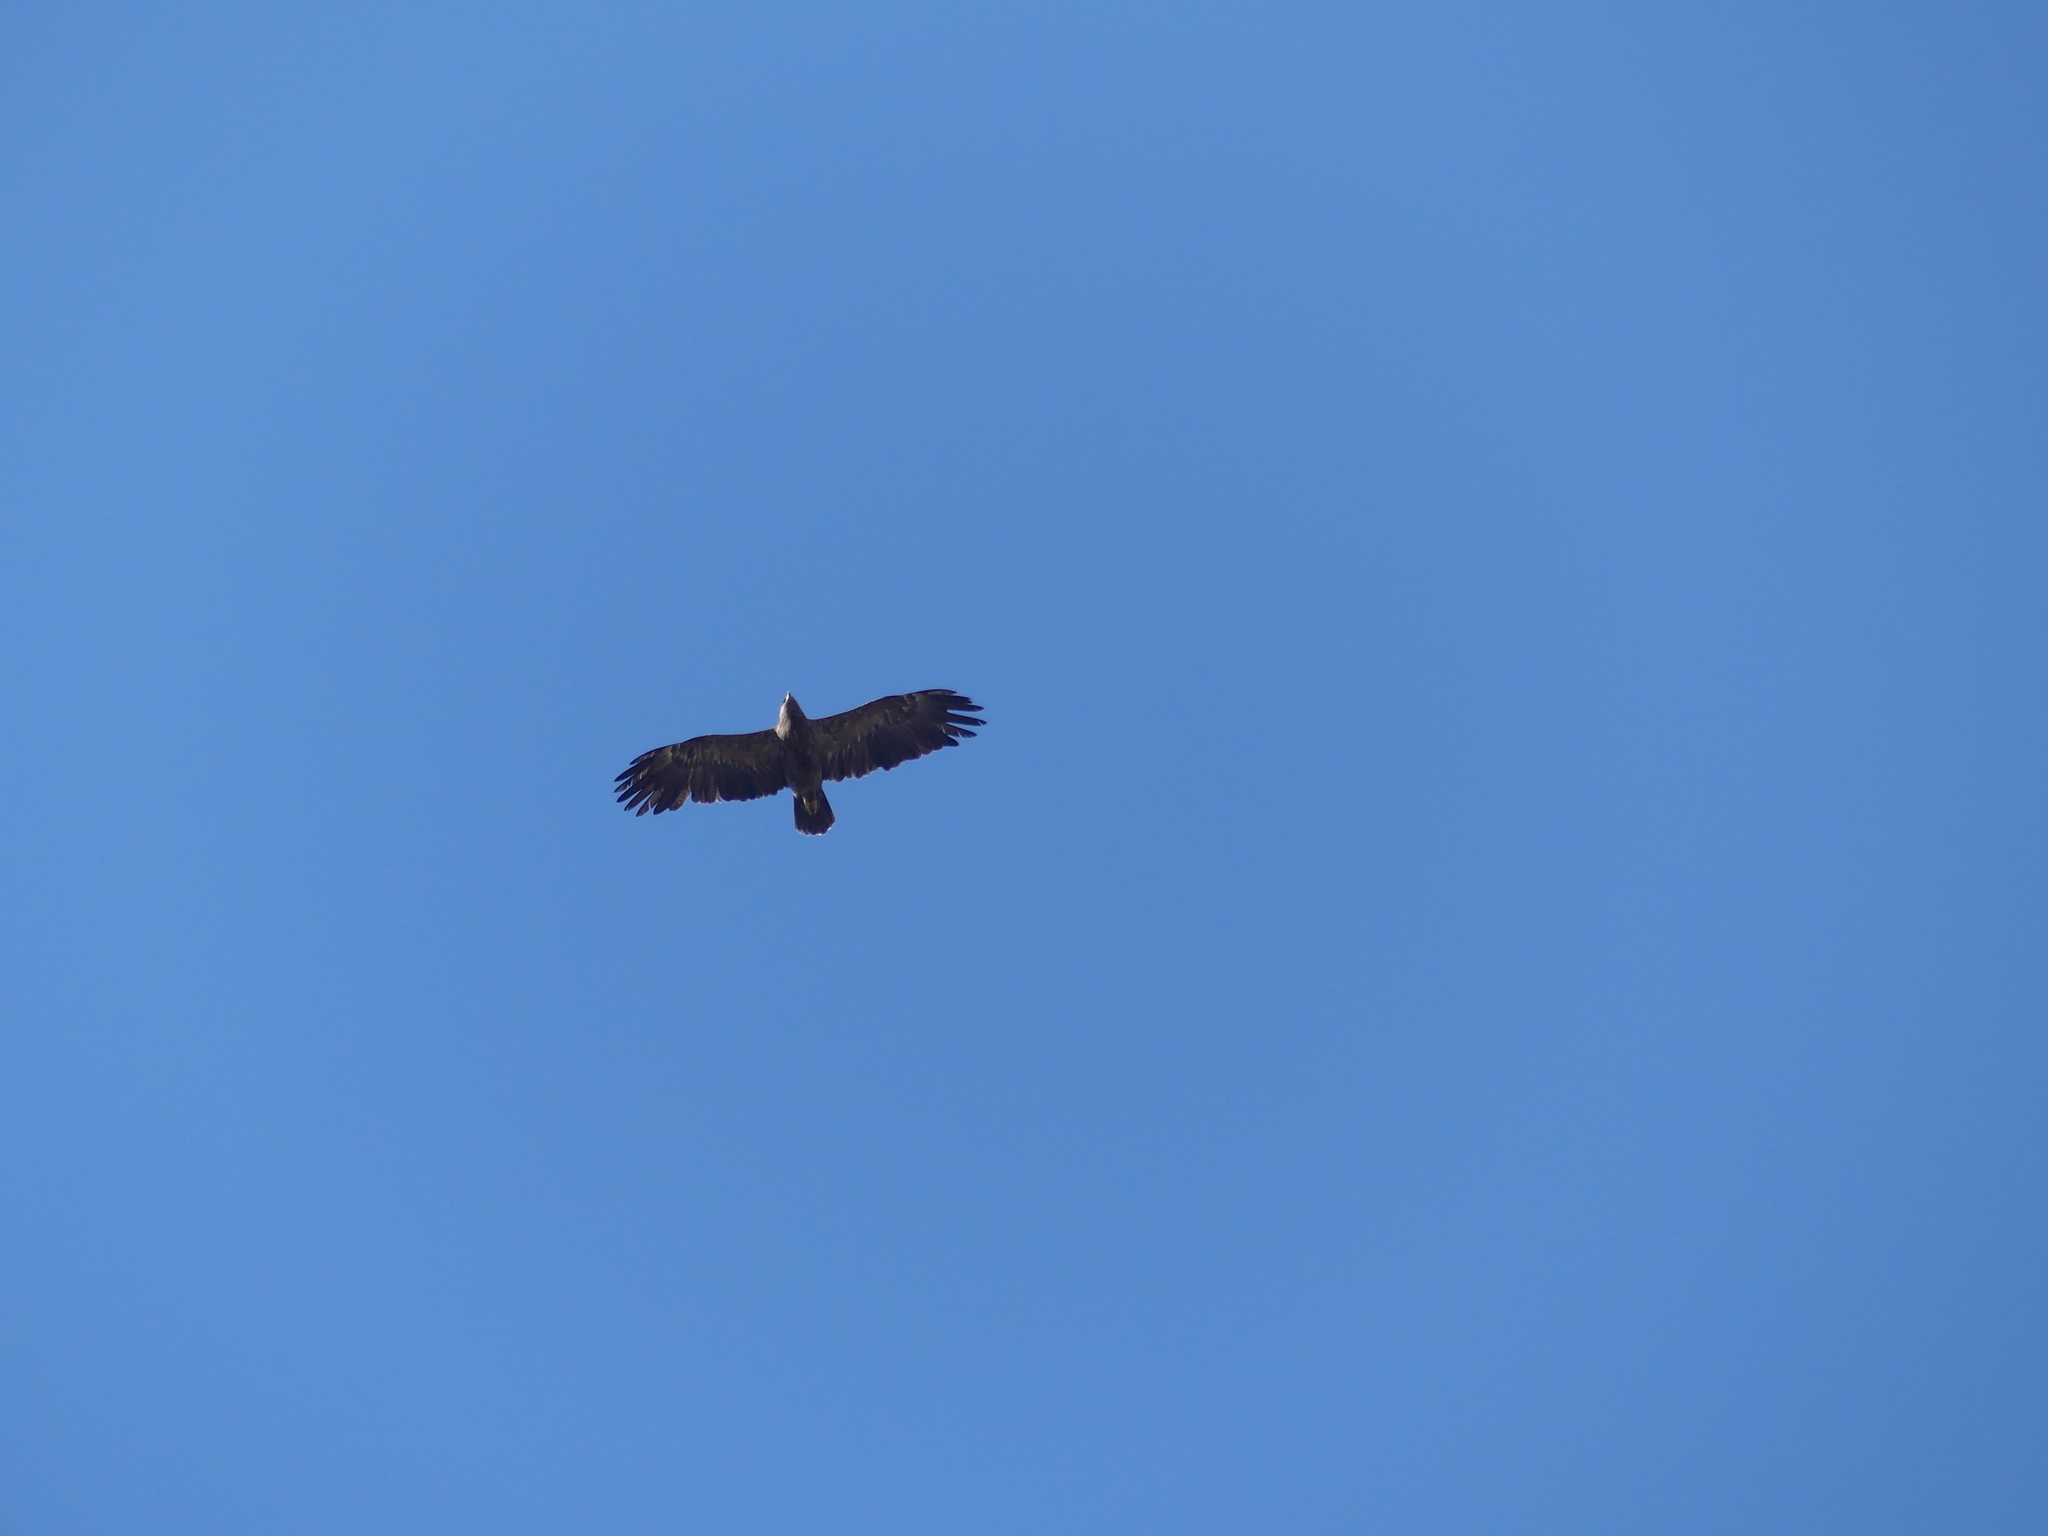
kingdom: Animalia
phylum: Chordata
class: Aves
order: Accipitriformes
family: Accipitridae
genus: Aquila
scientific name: Aquila pomarina
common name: Lesser spotted eagle
